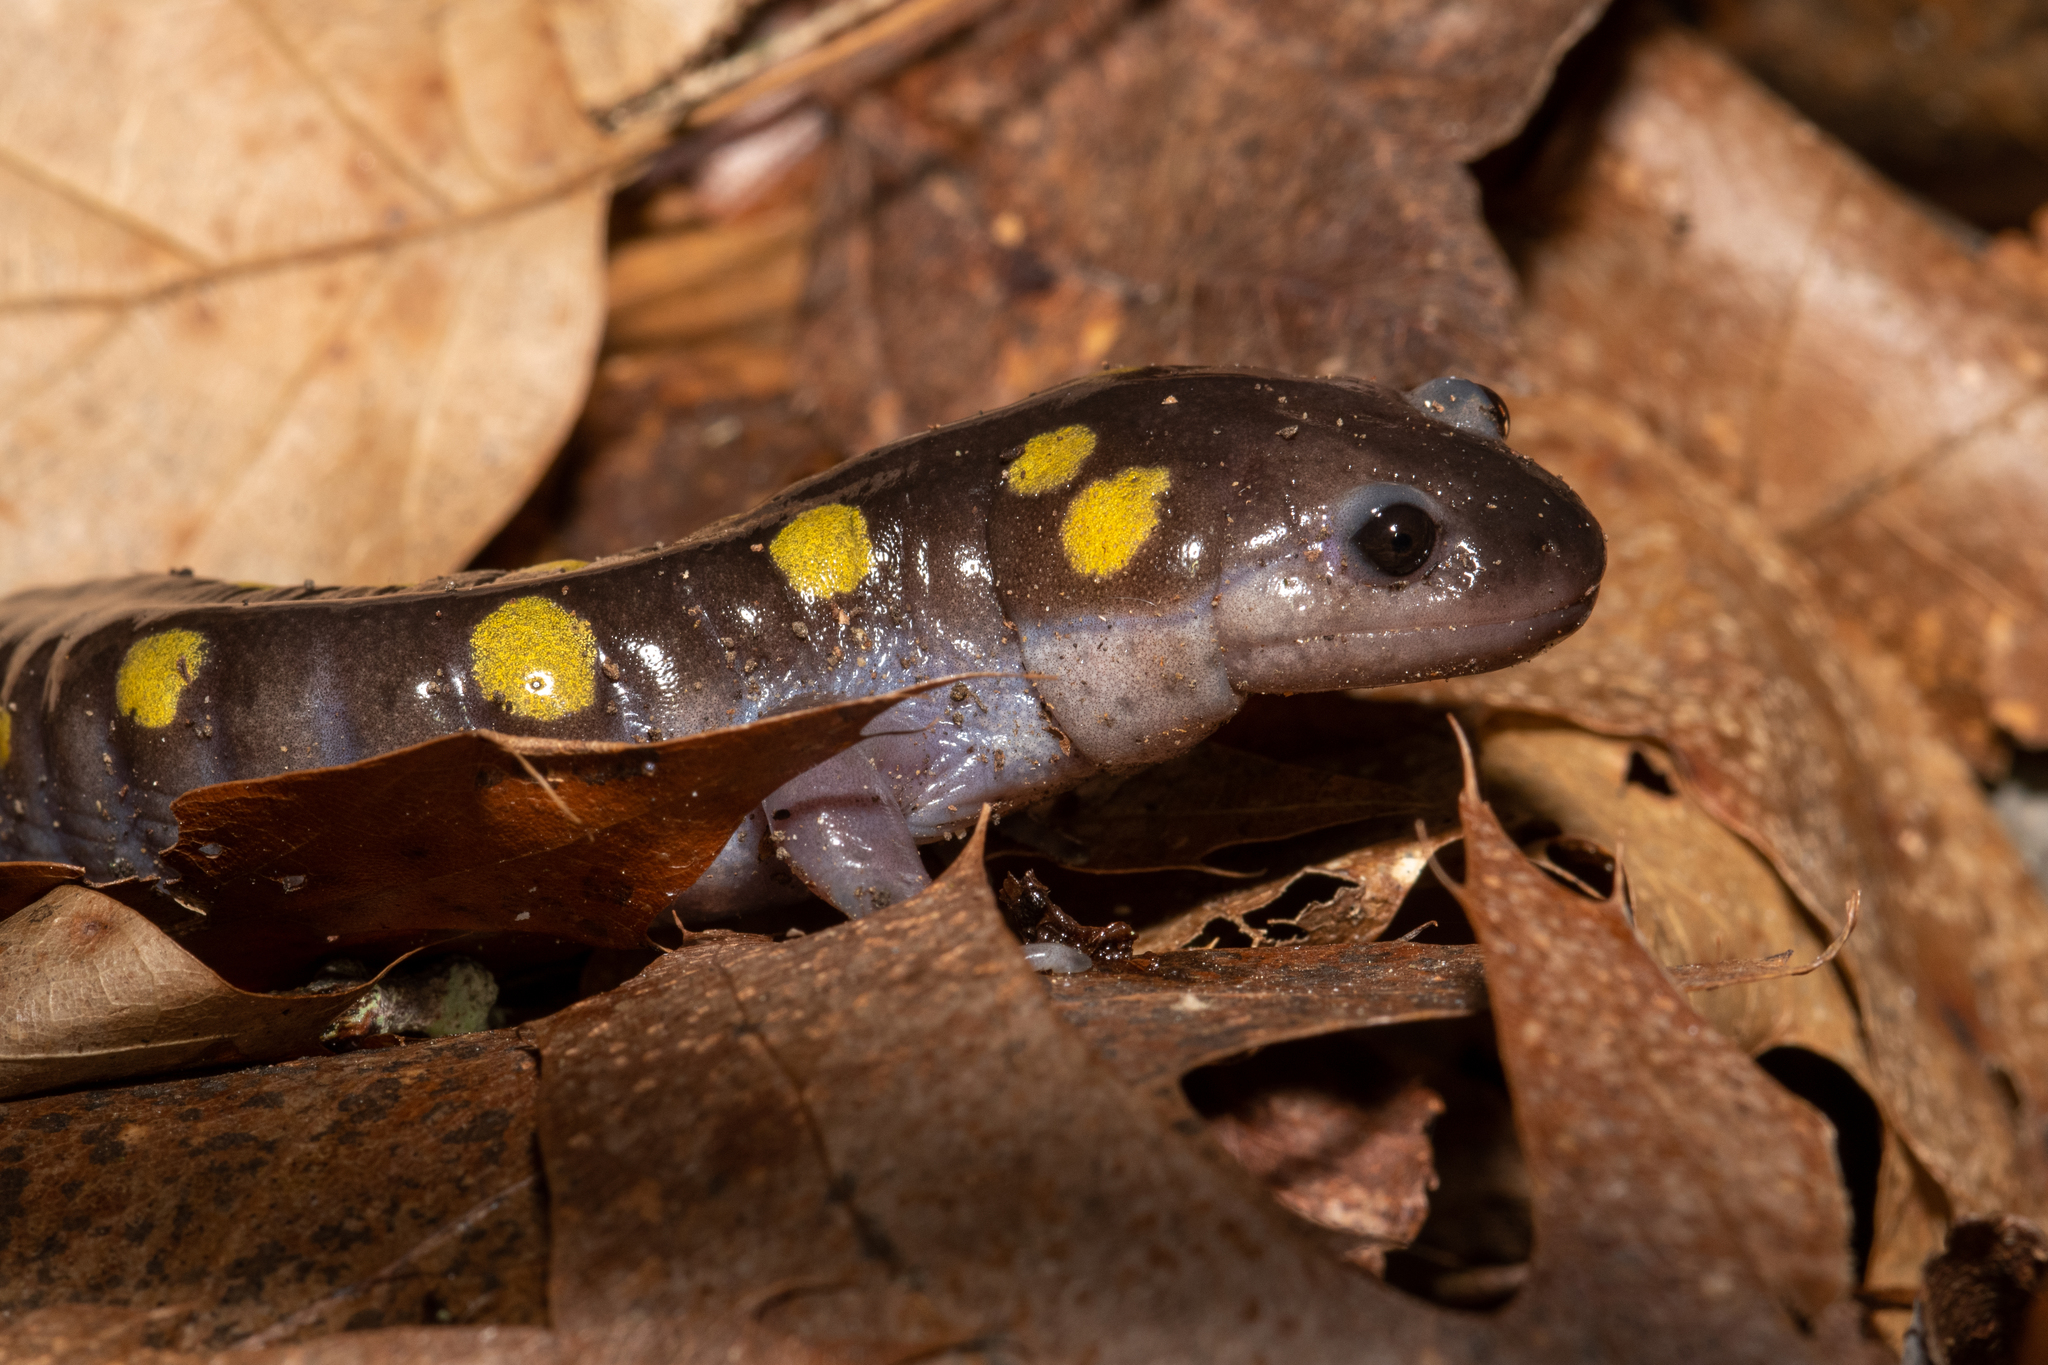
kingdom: Animalia
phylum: Chordata
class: Amphibia
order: Caudata
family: Ambystomatidae
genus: Ambystoma
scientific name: Ambystoma maculatum
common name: Spotted salamander
